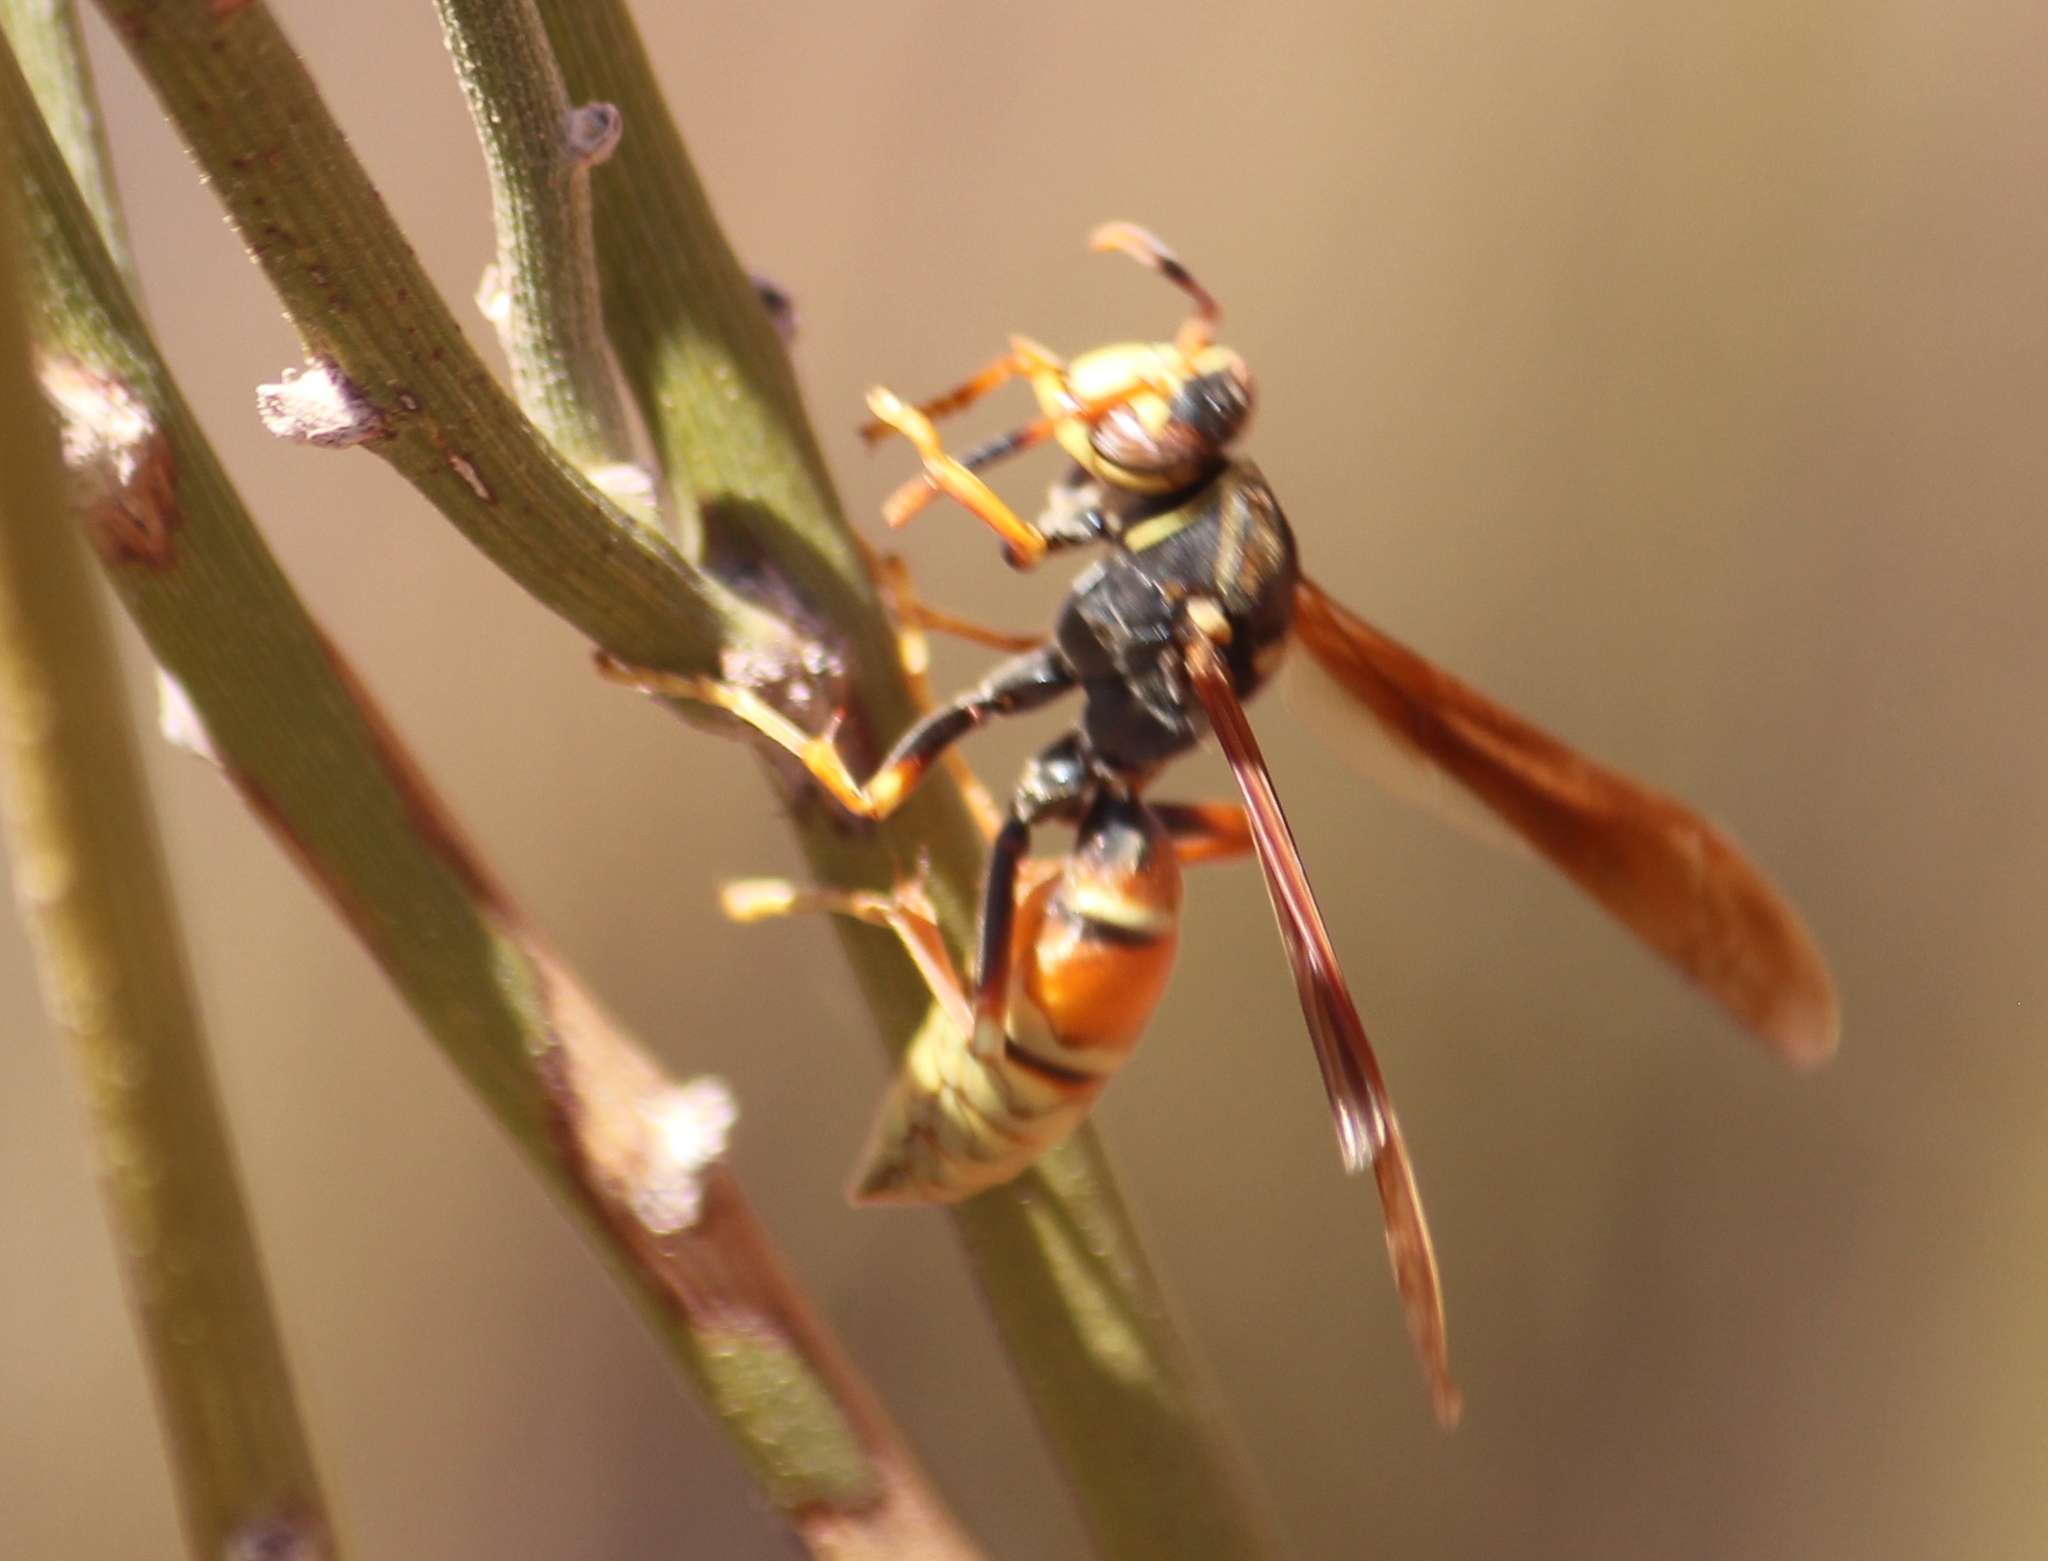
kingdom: Animalia
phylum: Arthropoda
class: Insecta
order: Hymenoptera
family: Eumenidae
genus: Polistes
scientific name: Polistes buyssoni
